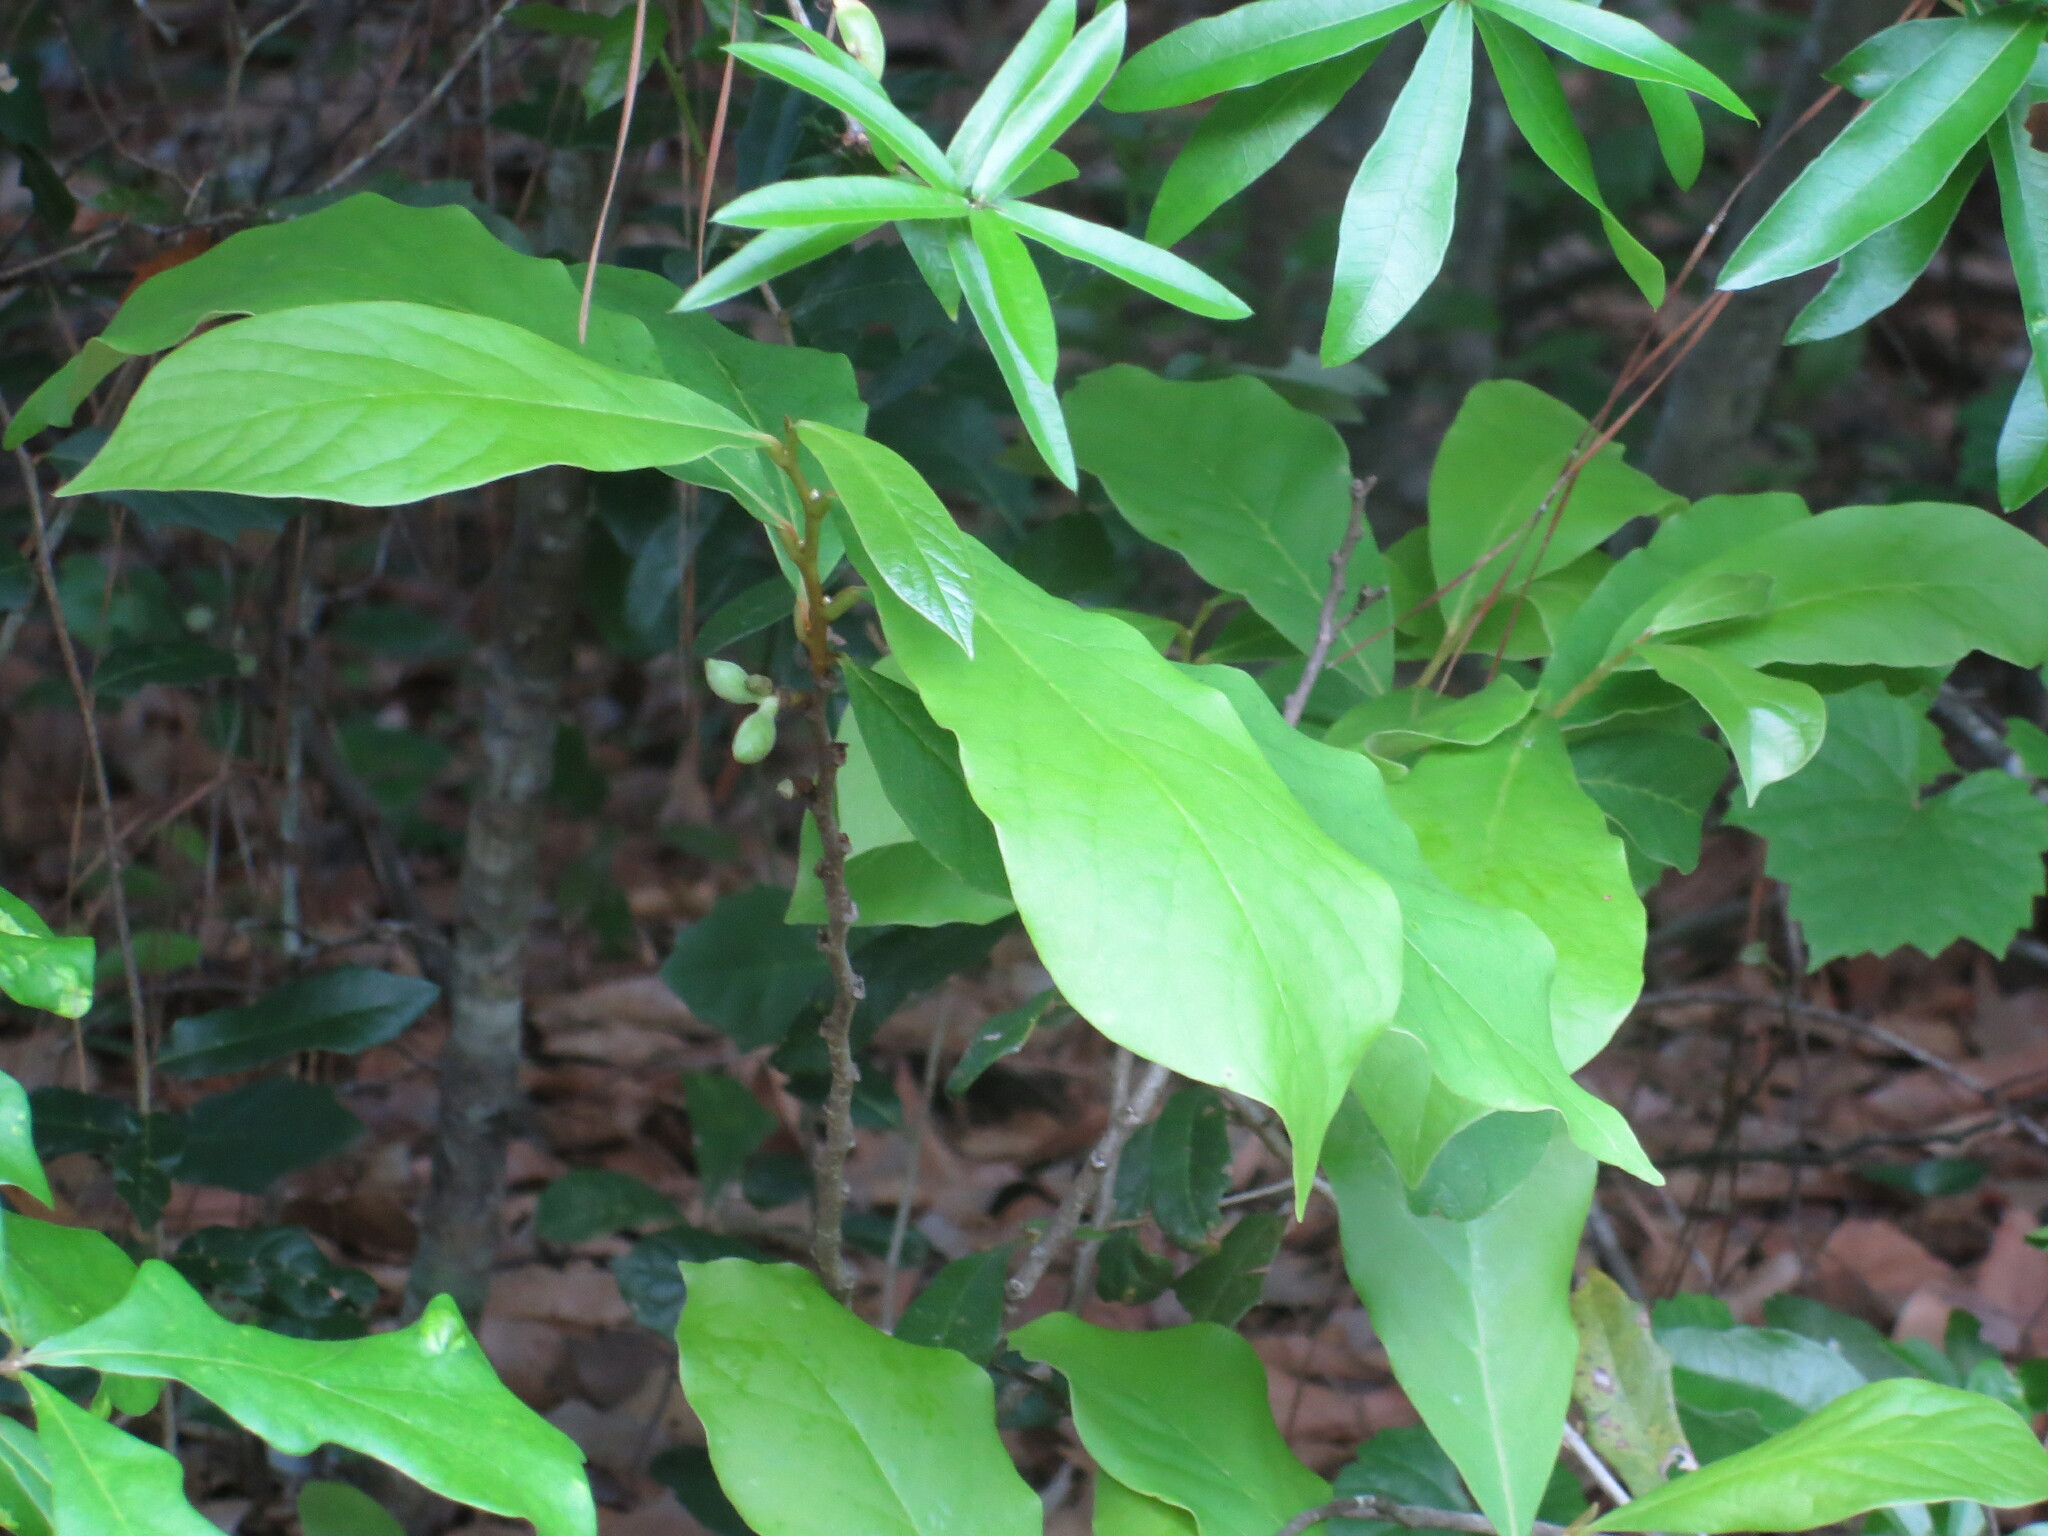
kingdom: Plantae
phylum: Tracheophyta
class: Magnoliopsida
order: Magnoliales
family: Annonaceae
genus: Asimina
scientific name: Asimina parviflora
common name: Dwarf pawpaw
